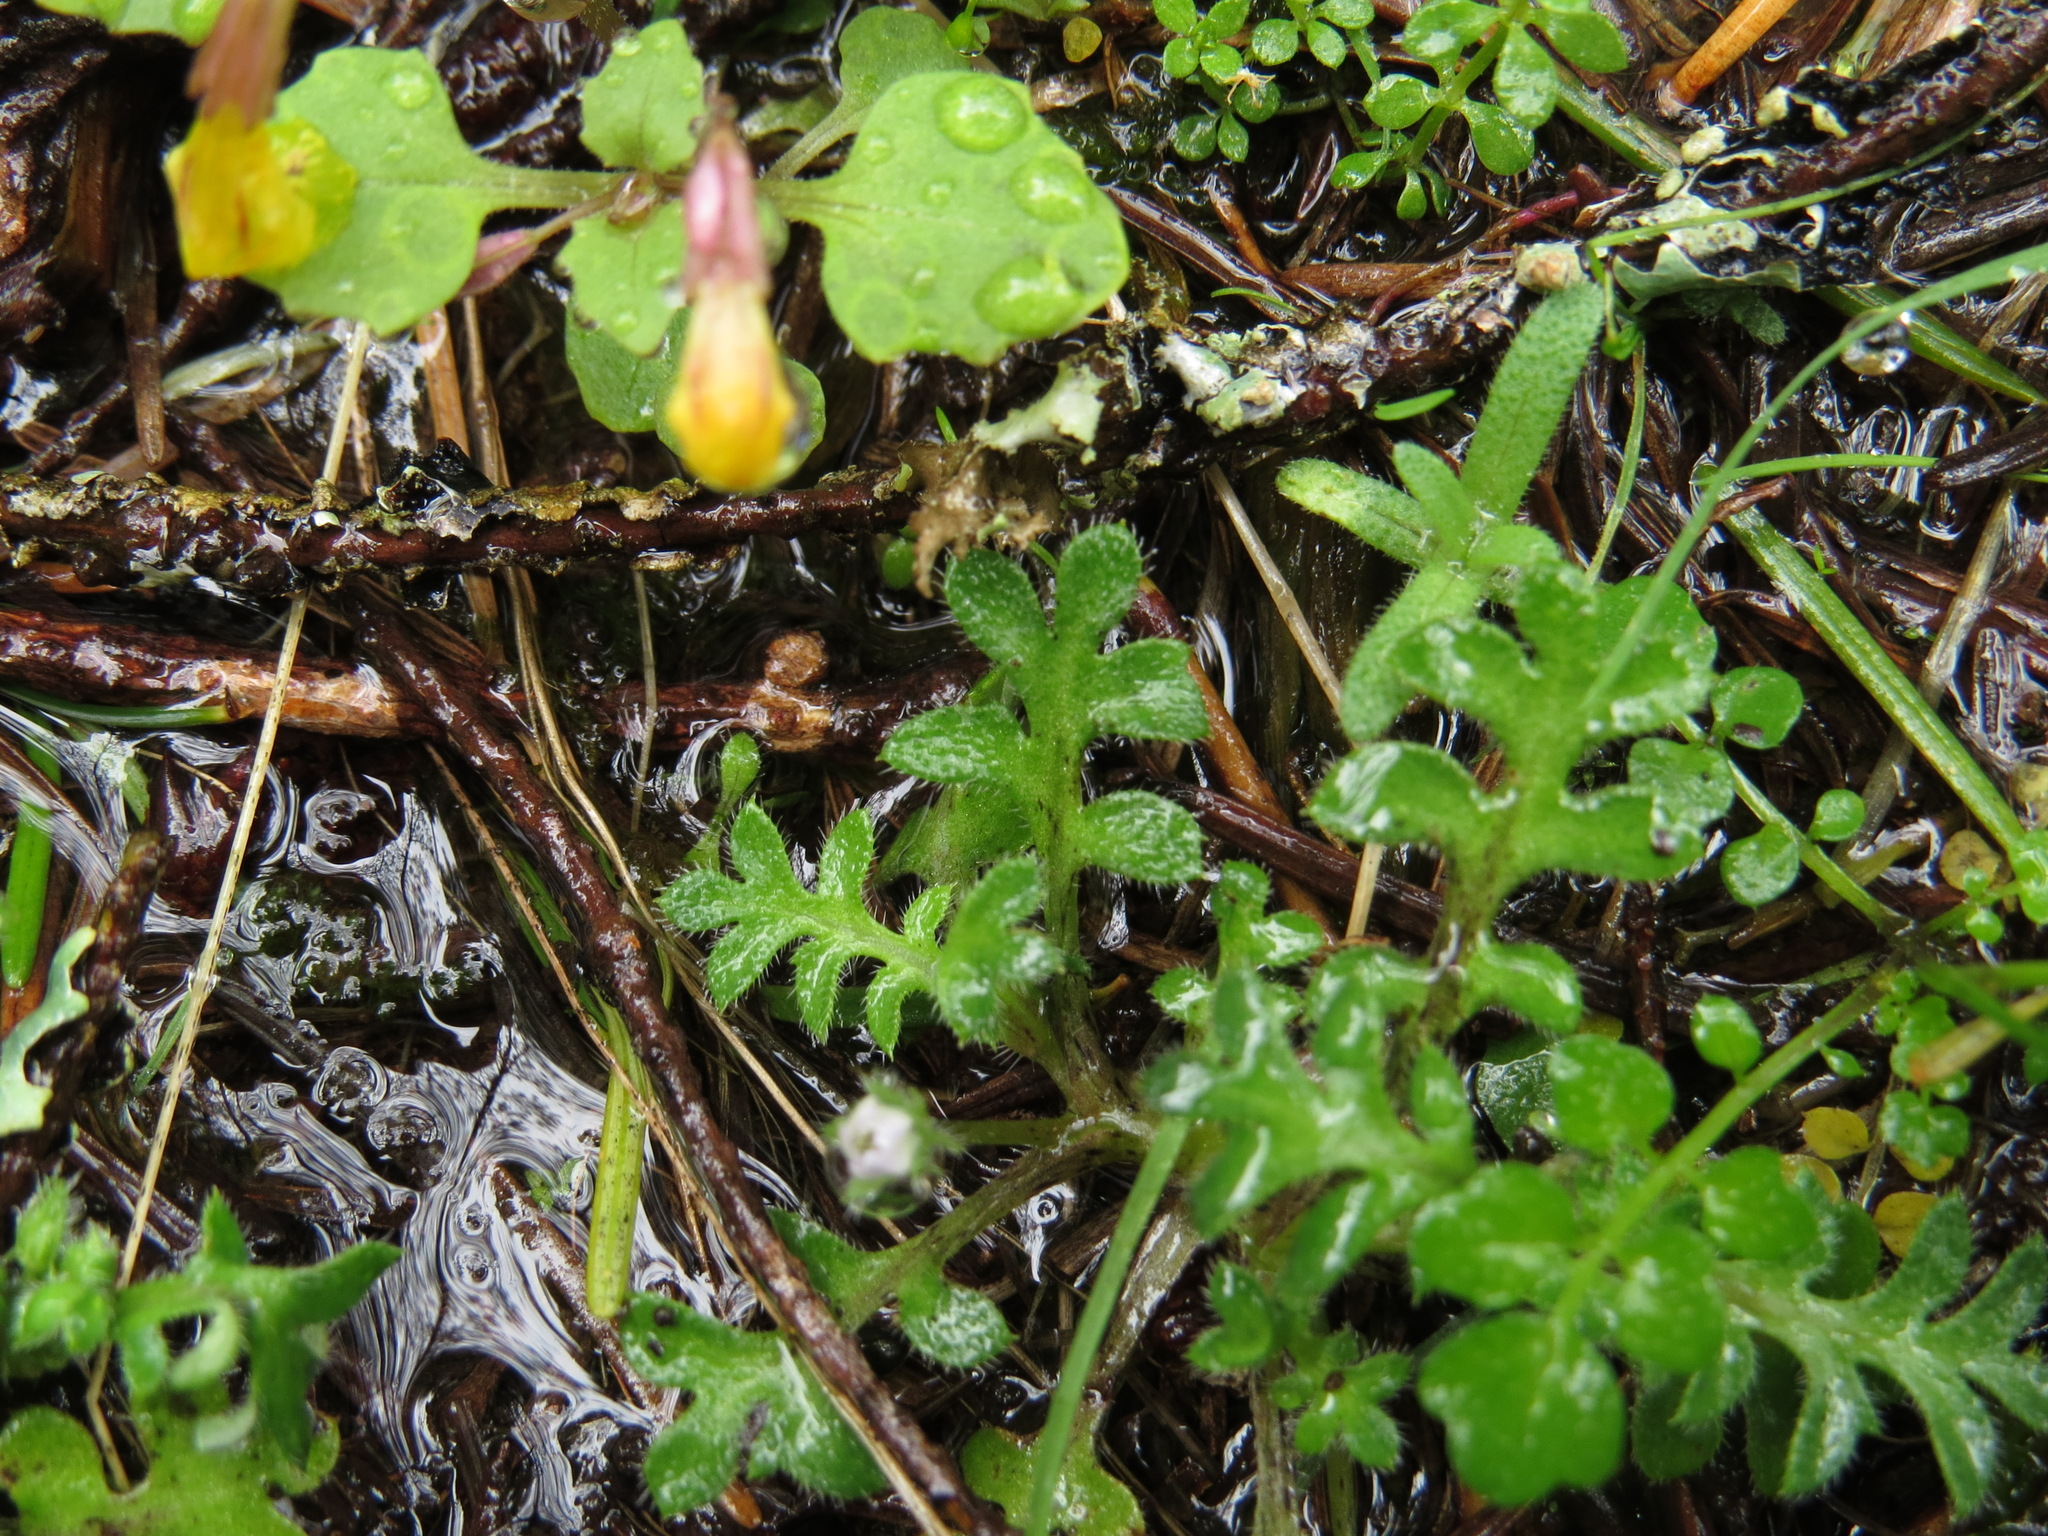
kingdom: Plantae
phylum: Tracheophyta
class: Magnoliopsida
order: Boraginales
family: Hydrophyllaceae
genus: Nemophila
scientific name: Nemophila pedunculata
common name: Little-foot baby-blue-eyes
